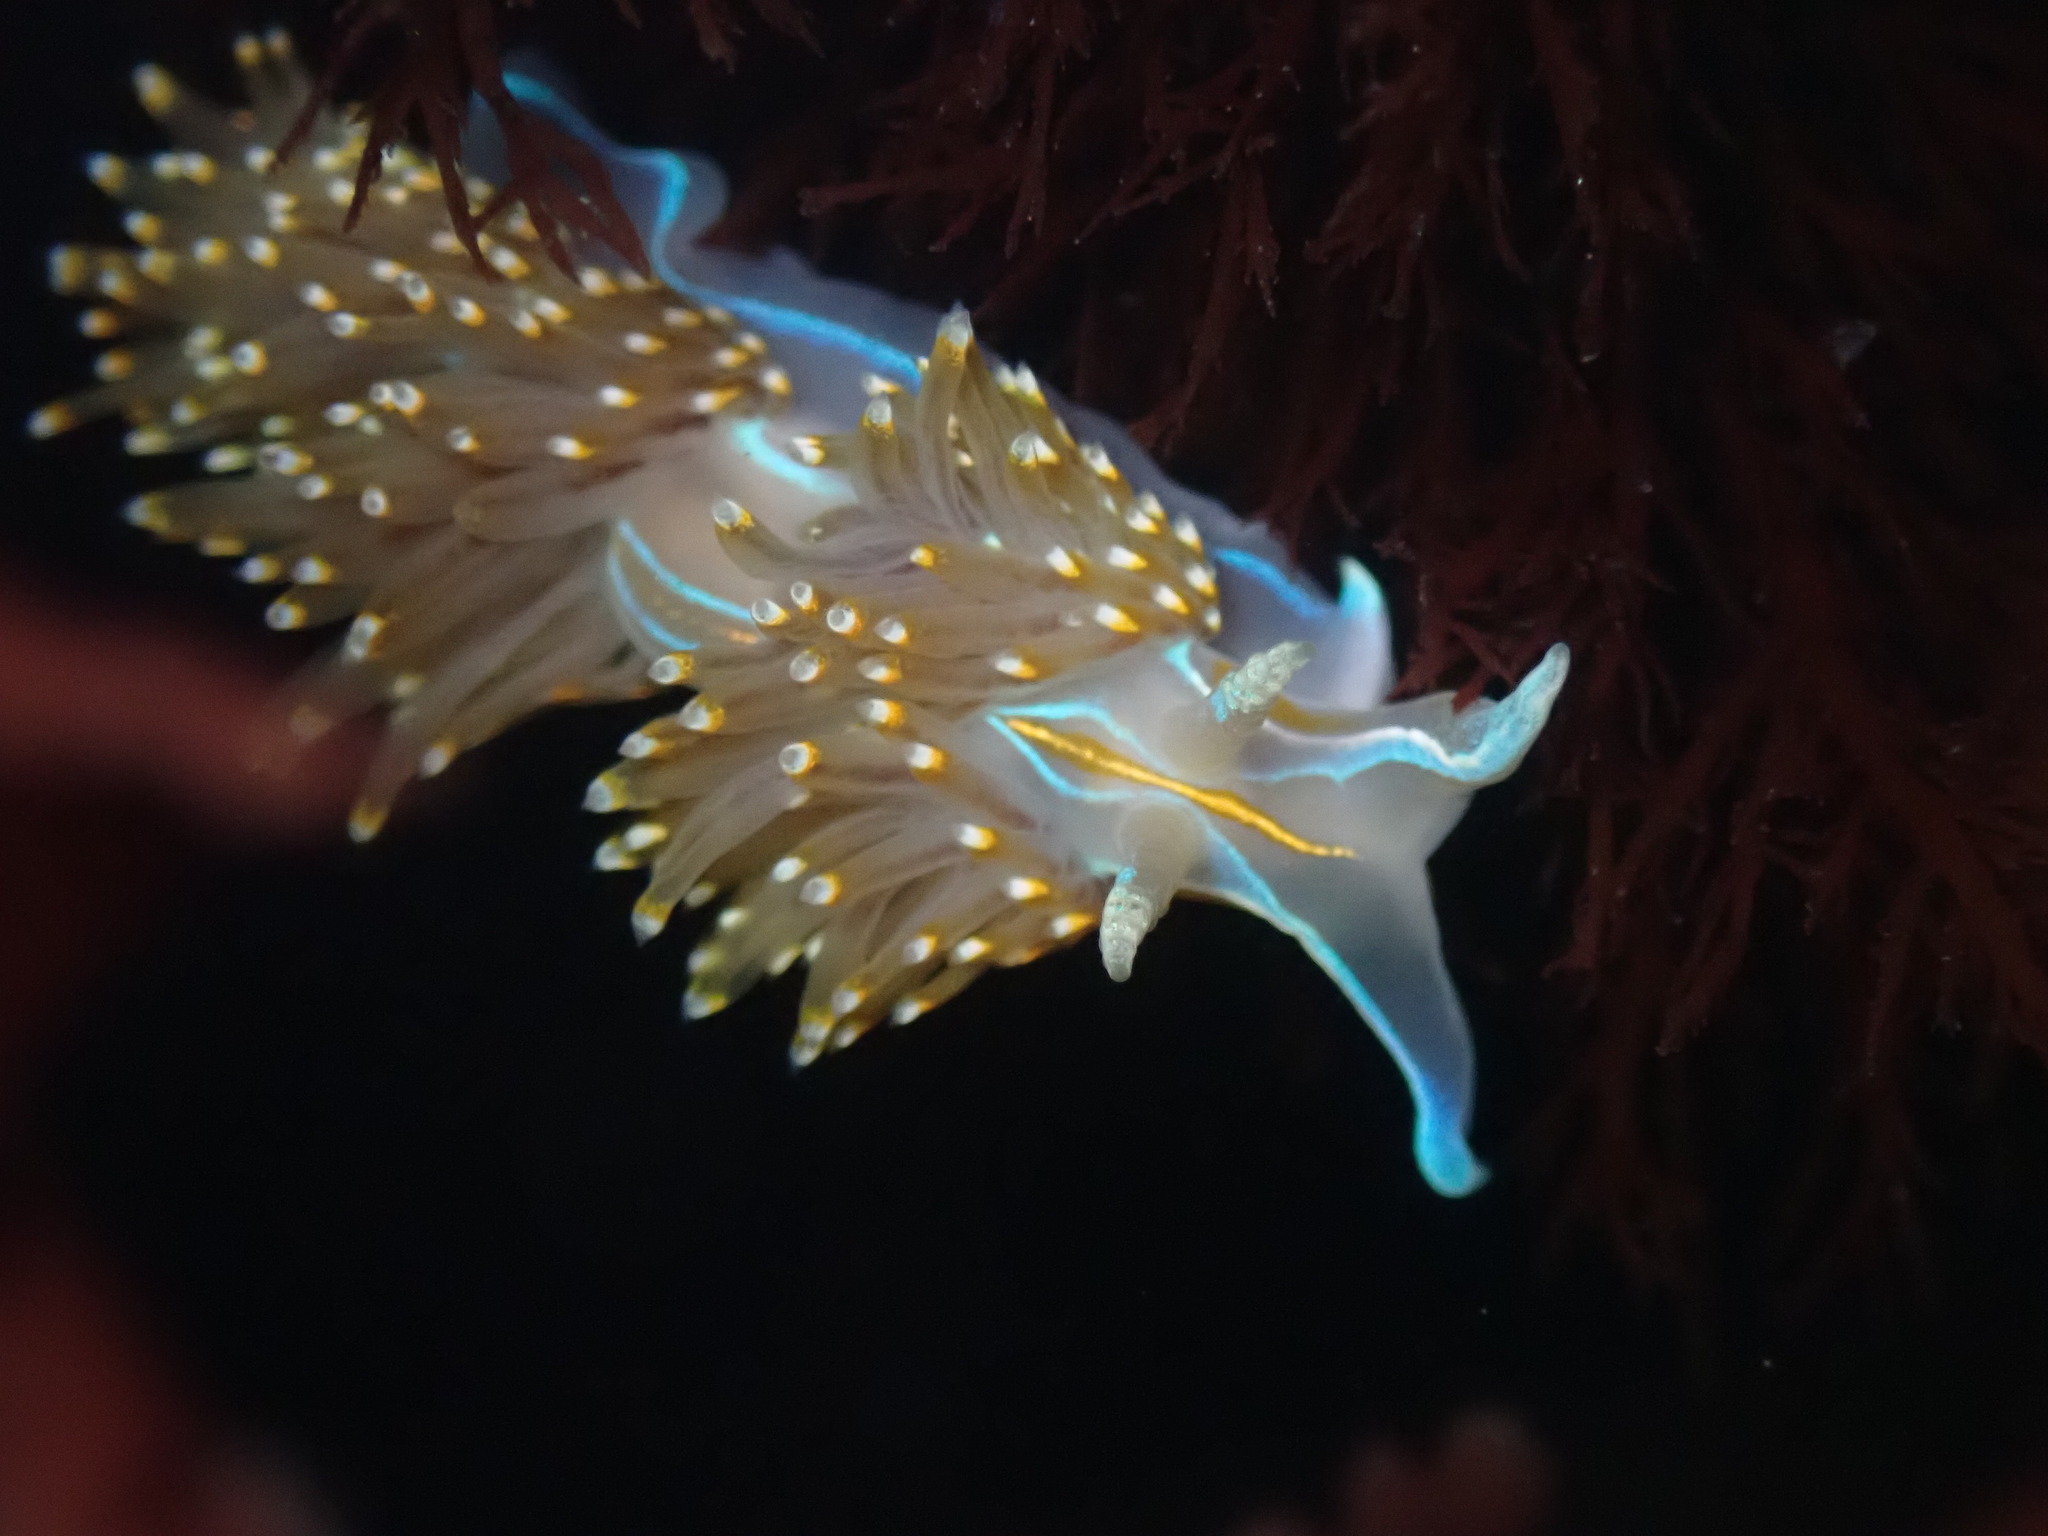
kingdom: Animalia
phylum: Mollusca
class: Gastropoda
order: Nudibranchia
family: Myrrhinidae
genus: Hermissenda
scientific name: Hermissenda opalescens
